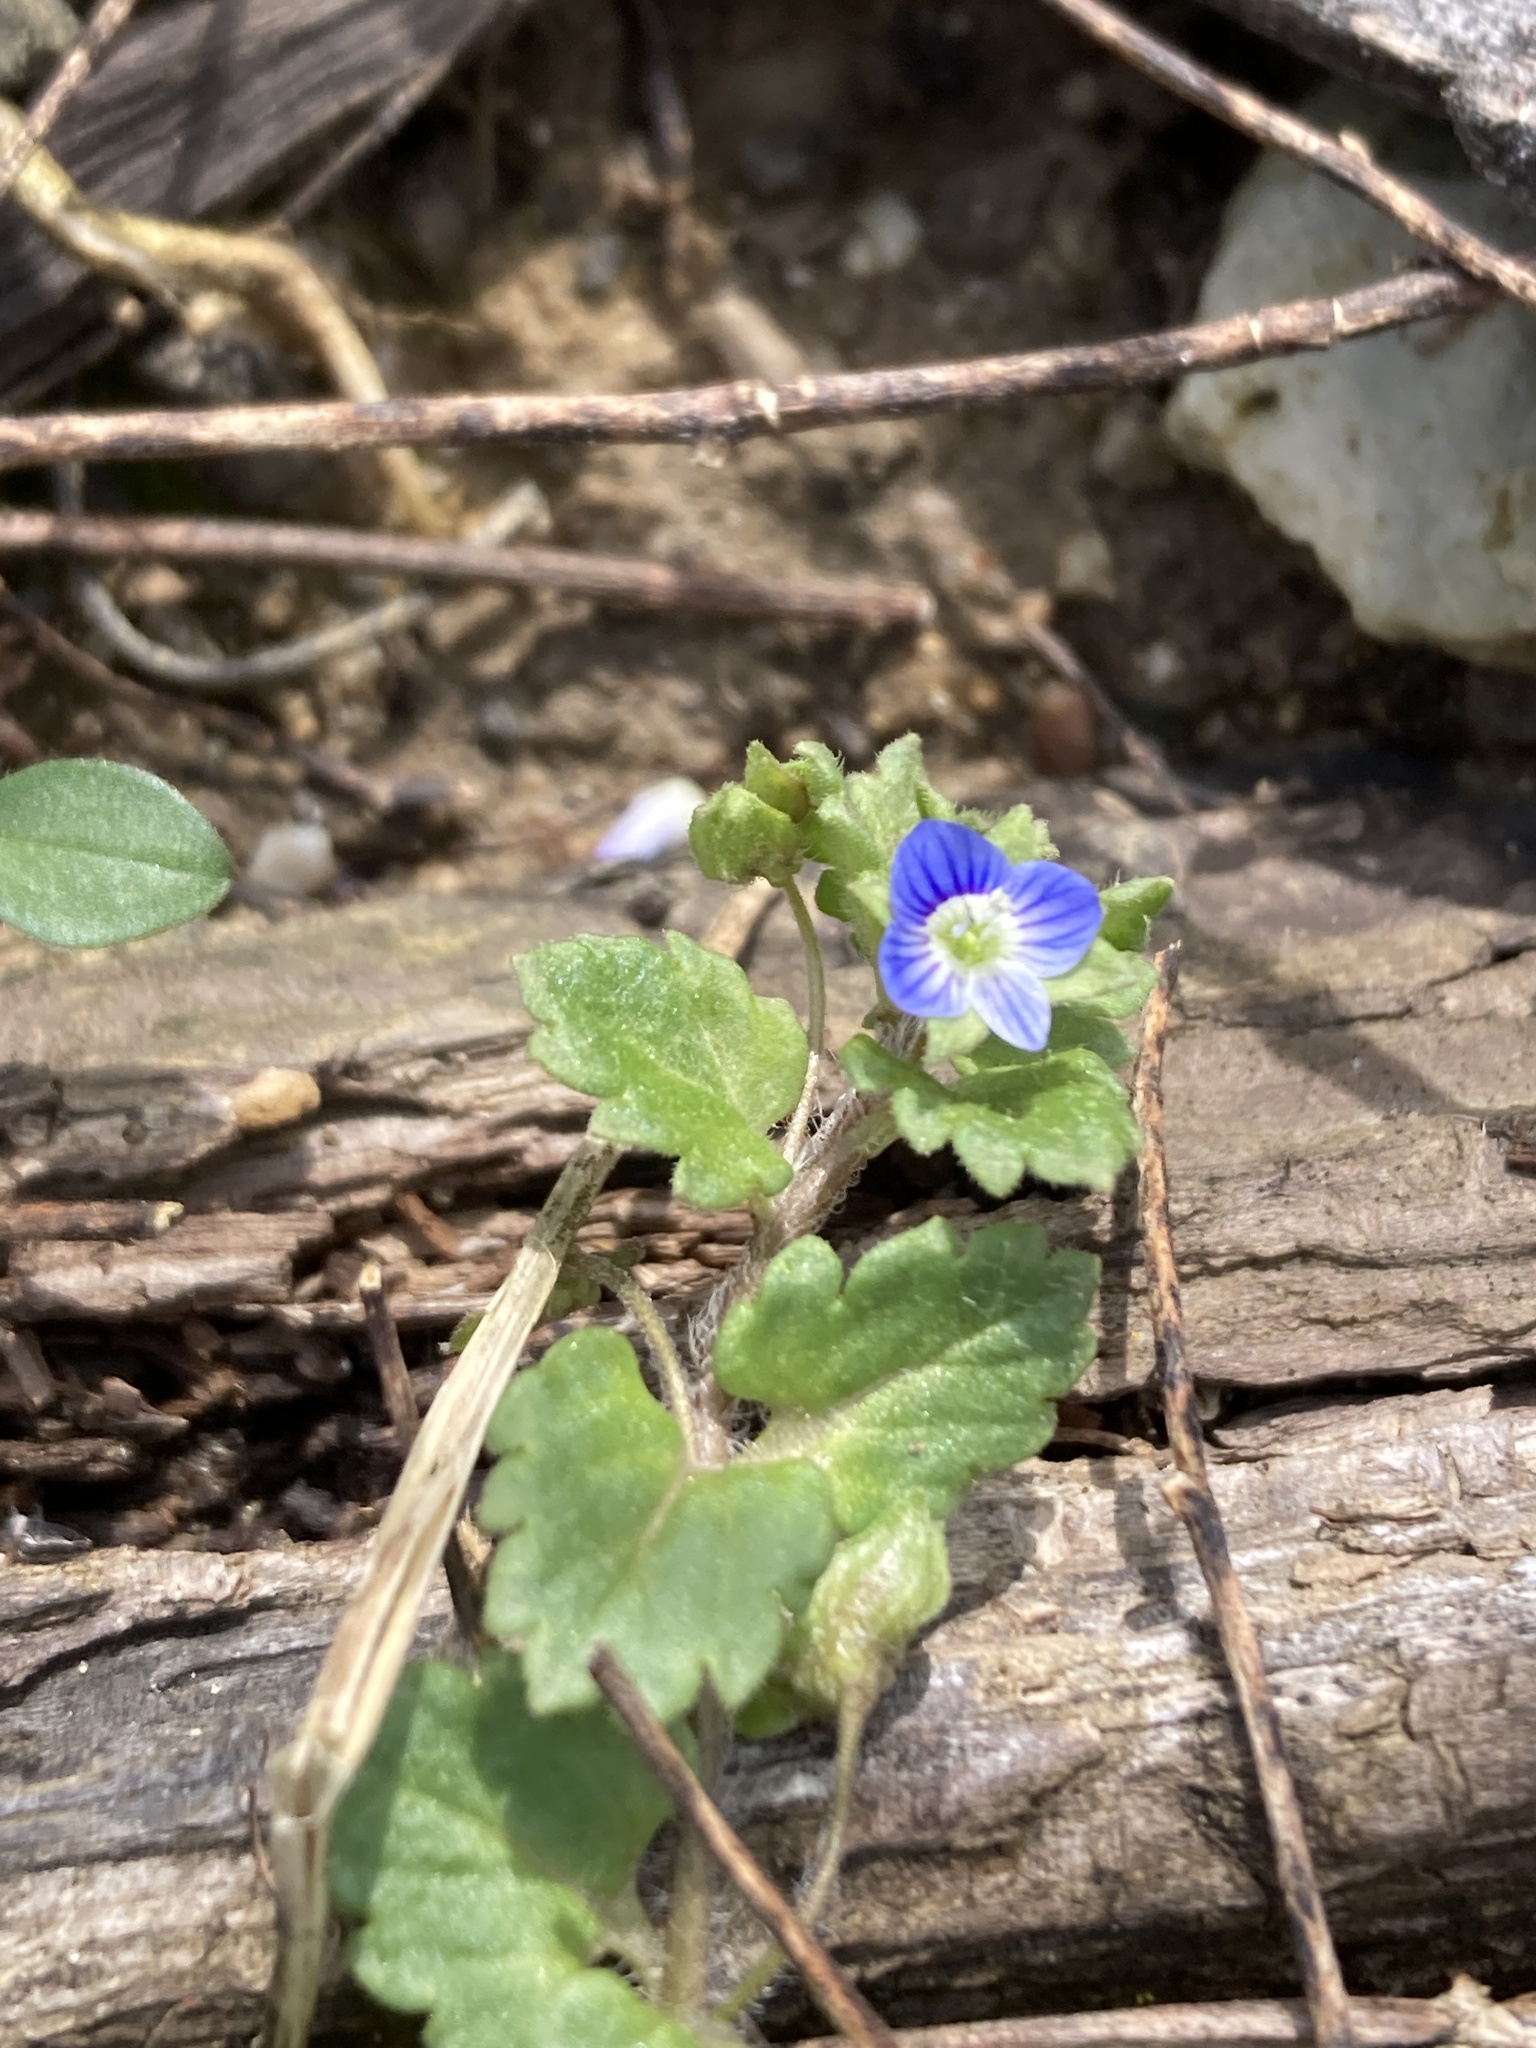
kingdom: Plantae
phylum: Tracheophyta
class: Magnoliopsida
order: Lamiales
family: Plantaginaceae
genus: Veronica
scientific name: Veronica polita
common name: Grey field-speedwell
